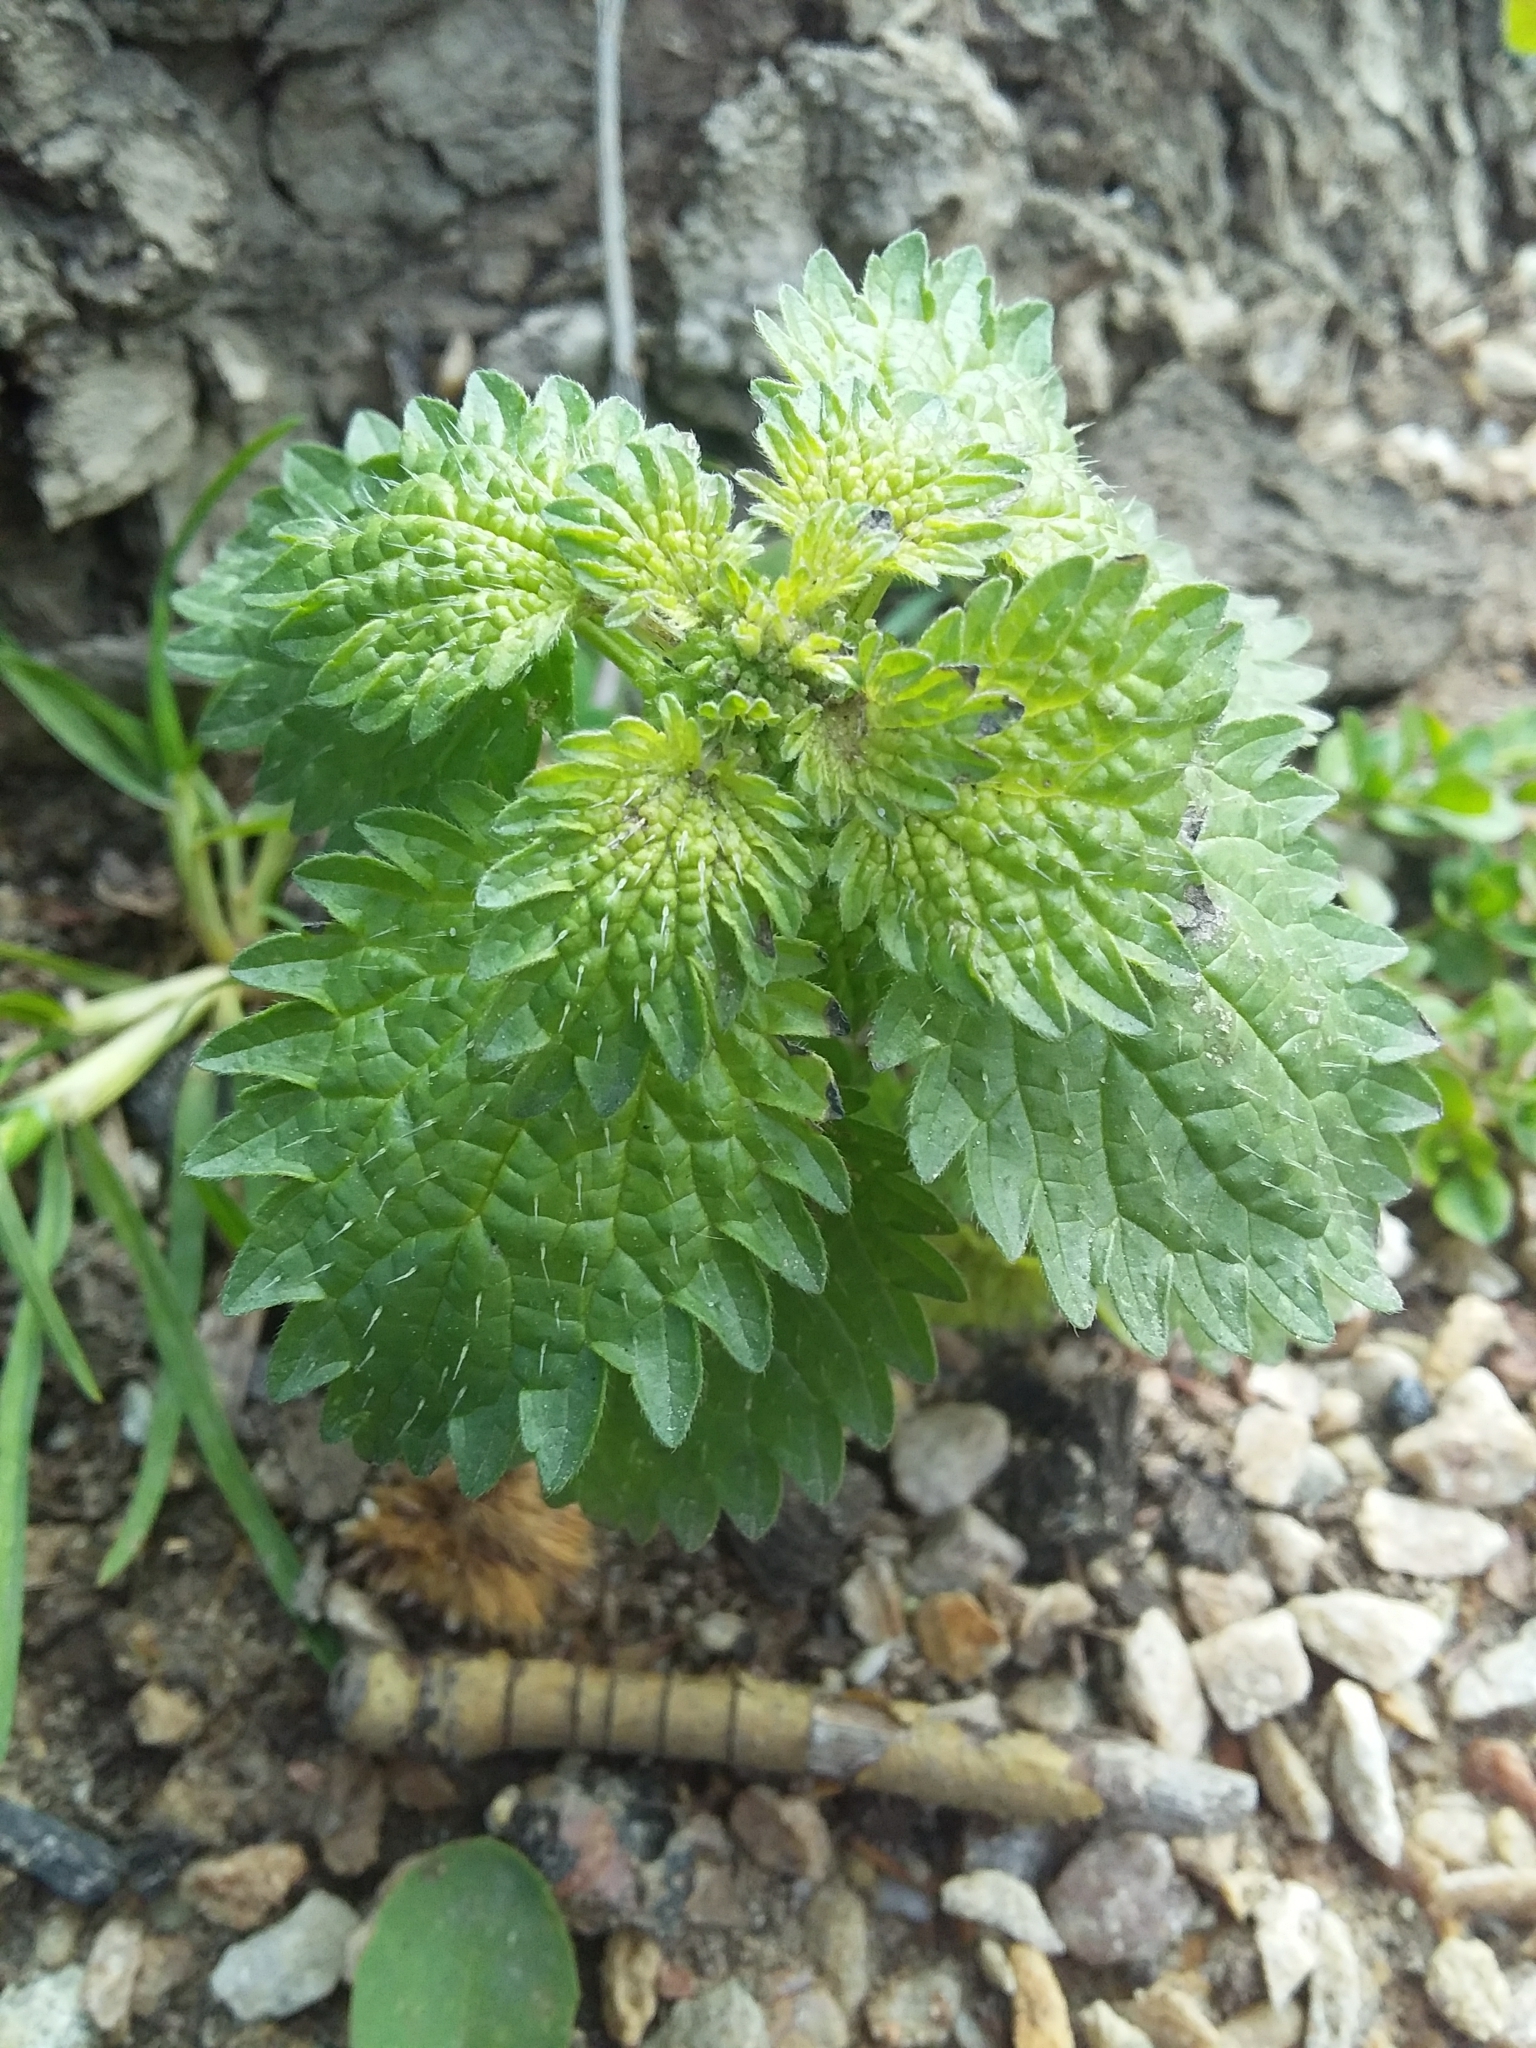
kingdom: Plantae
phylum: Tracheophyta
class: Magnoliopsida
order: Rosales
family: Urticaceae
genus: Urtica
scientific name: Urtica urens
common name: Dwarf nettle
